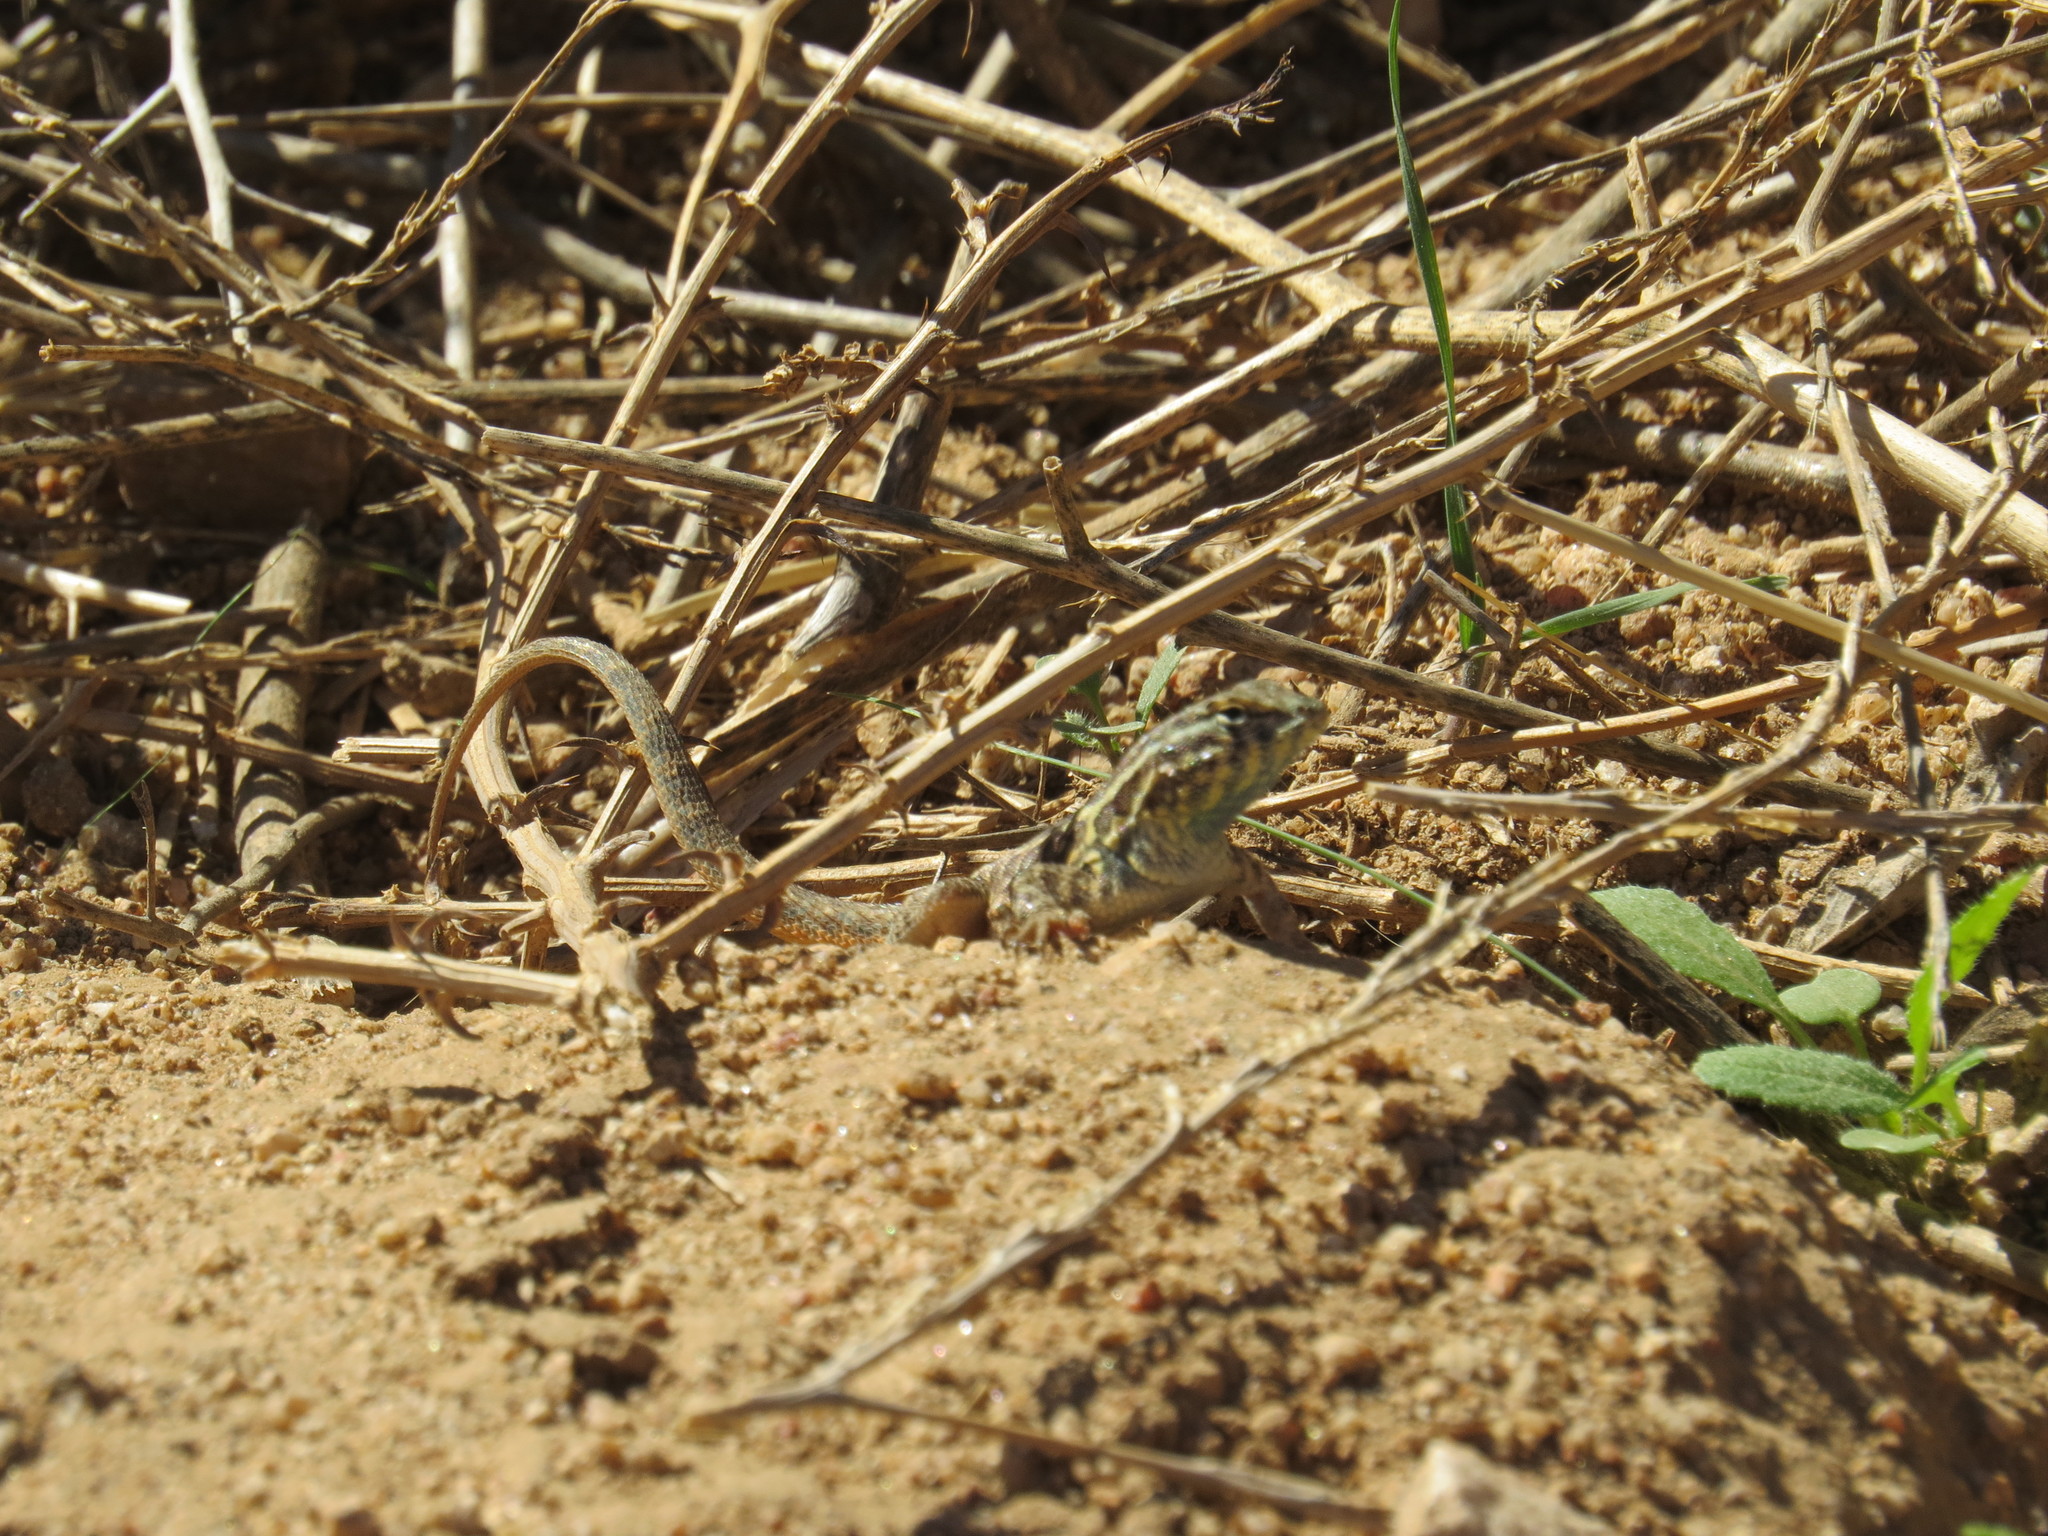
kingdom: Animalia
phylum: Chordata
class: Squamata
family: Phrynosomatidae
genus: Uta
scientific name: Uta stansburiana
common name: Side-blotched lizard
